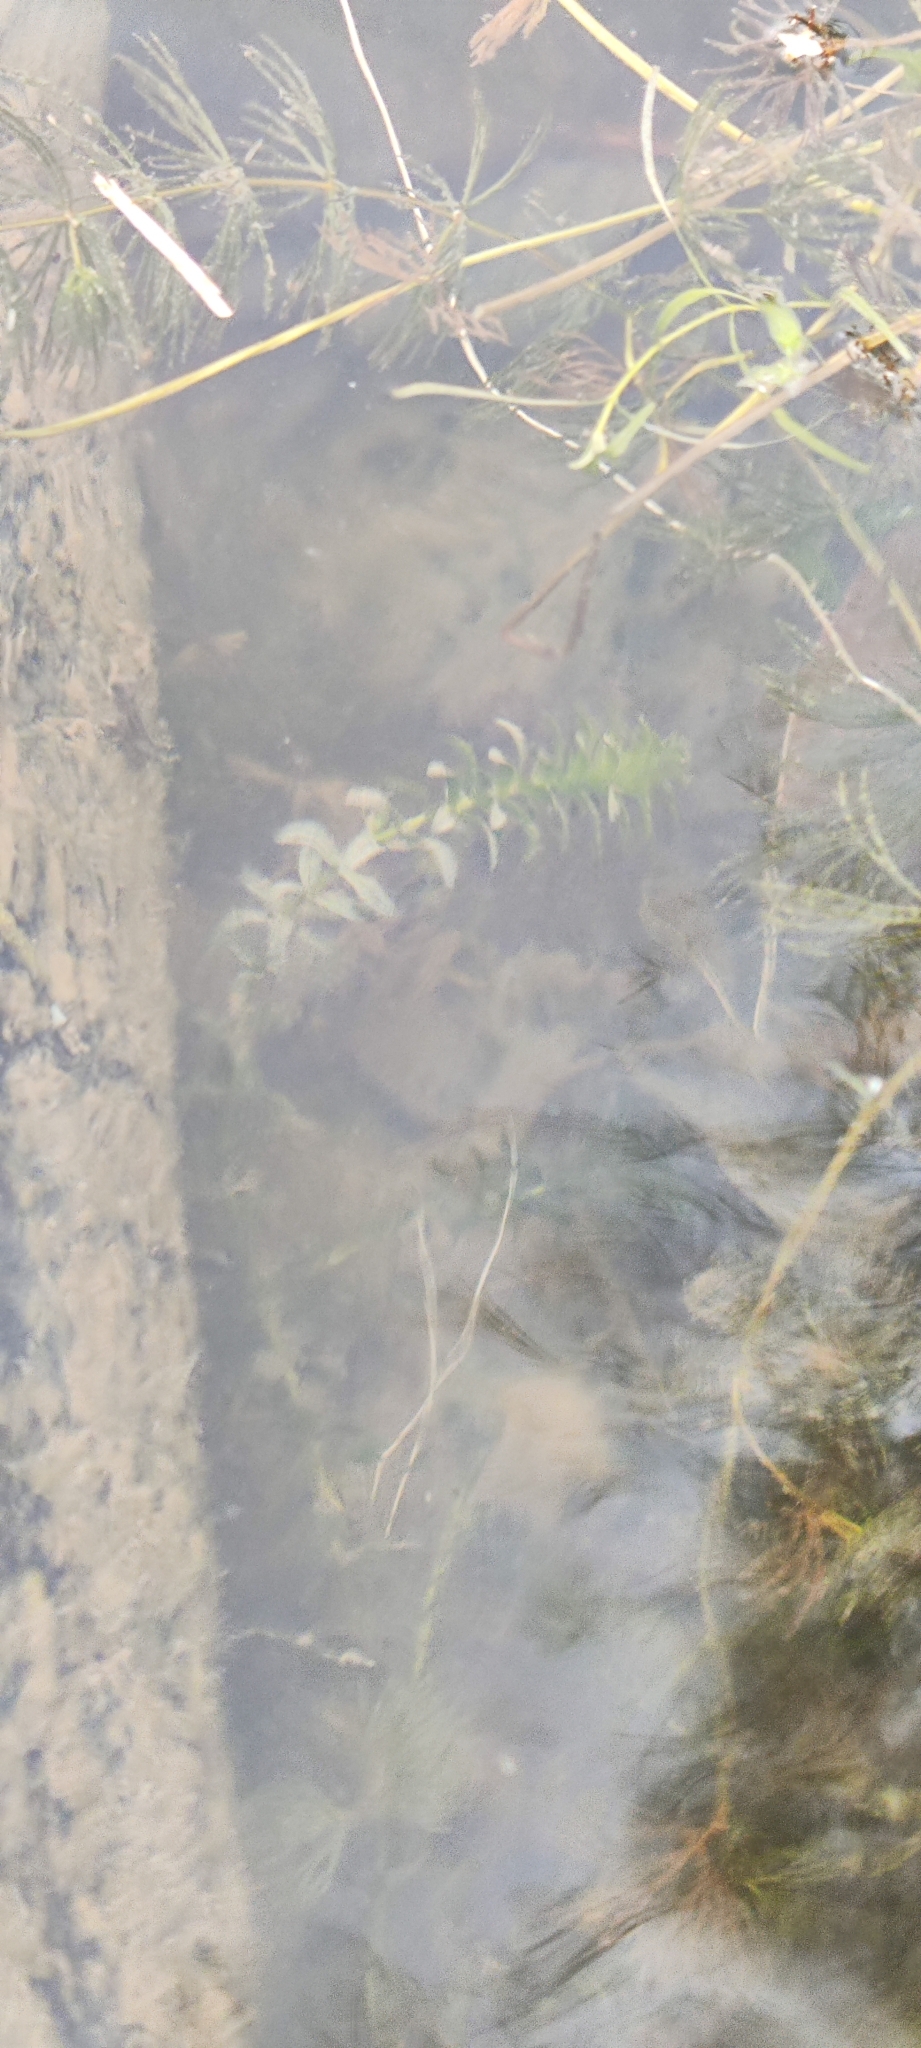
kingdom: Plantae
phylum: Tracheophyta
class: Liliopsida
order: Alismatales
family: Hydrocharitaceae
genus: Elodea
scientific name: Elodea canadensis
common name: Canadian waterweed
